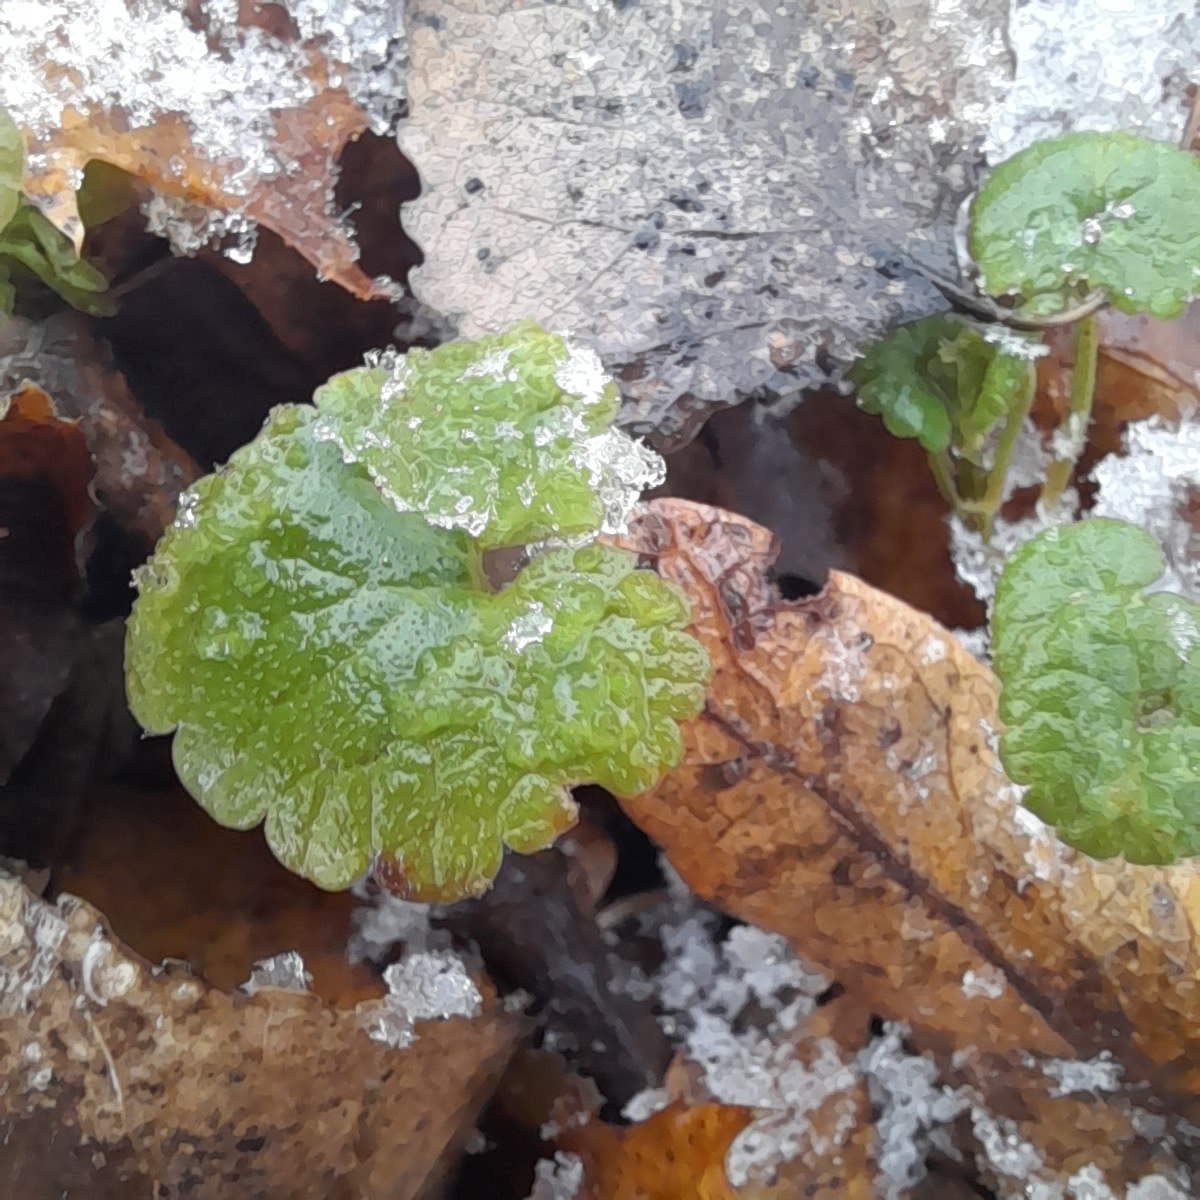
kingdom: Plantae
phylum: Tracheophyta
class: Magnoliopsida
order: Lamiales
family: Lamiaceae
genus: Glechoma
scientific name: Glechoma hederacea
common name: Ground ivy
